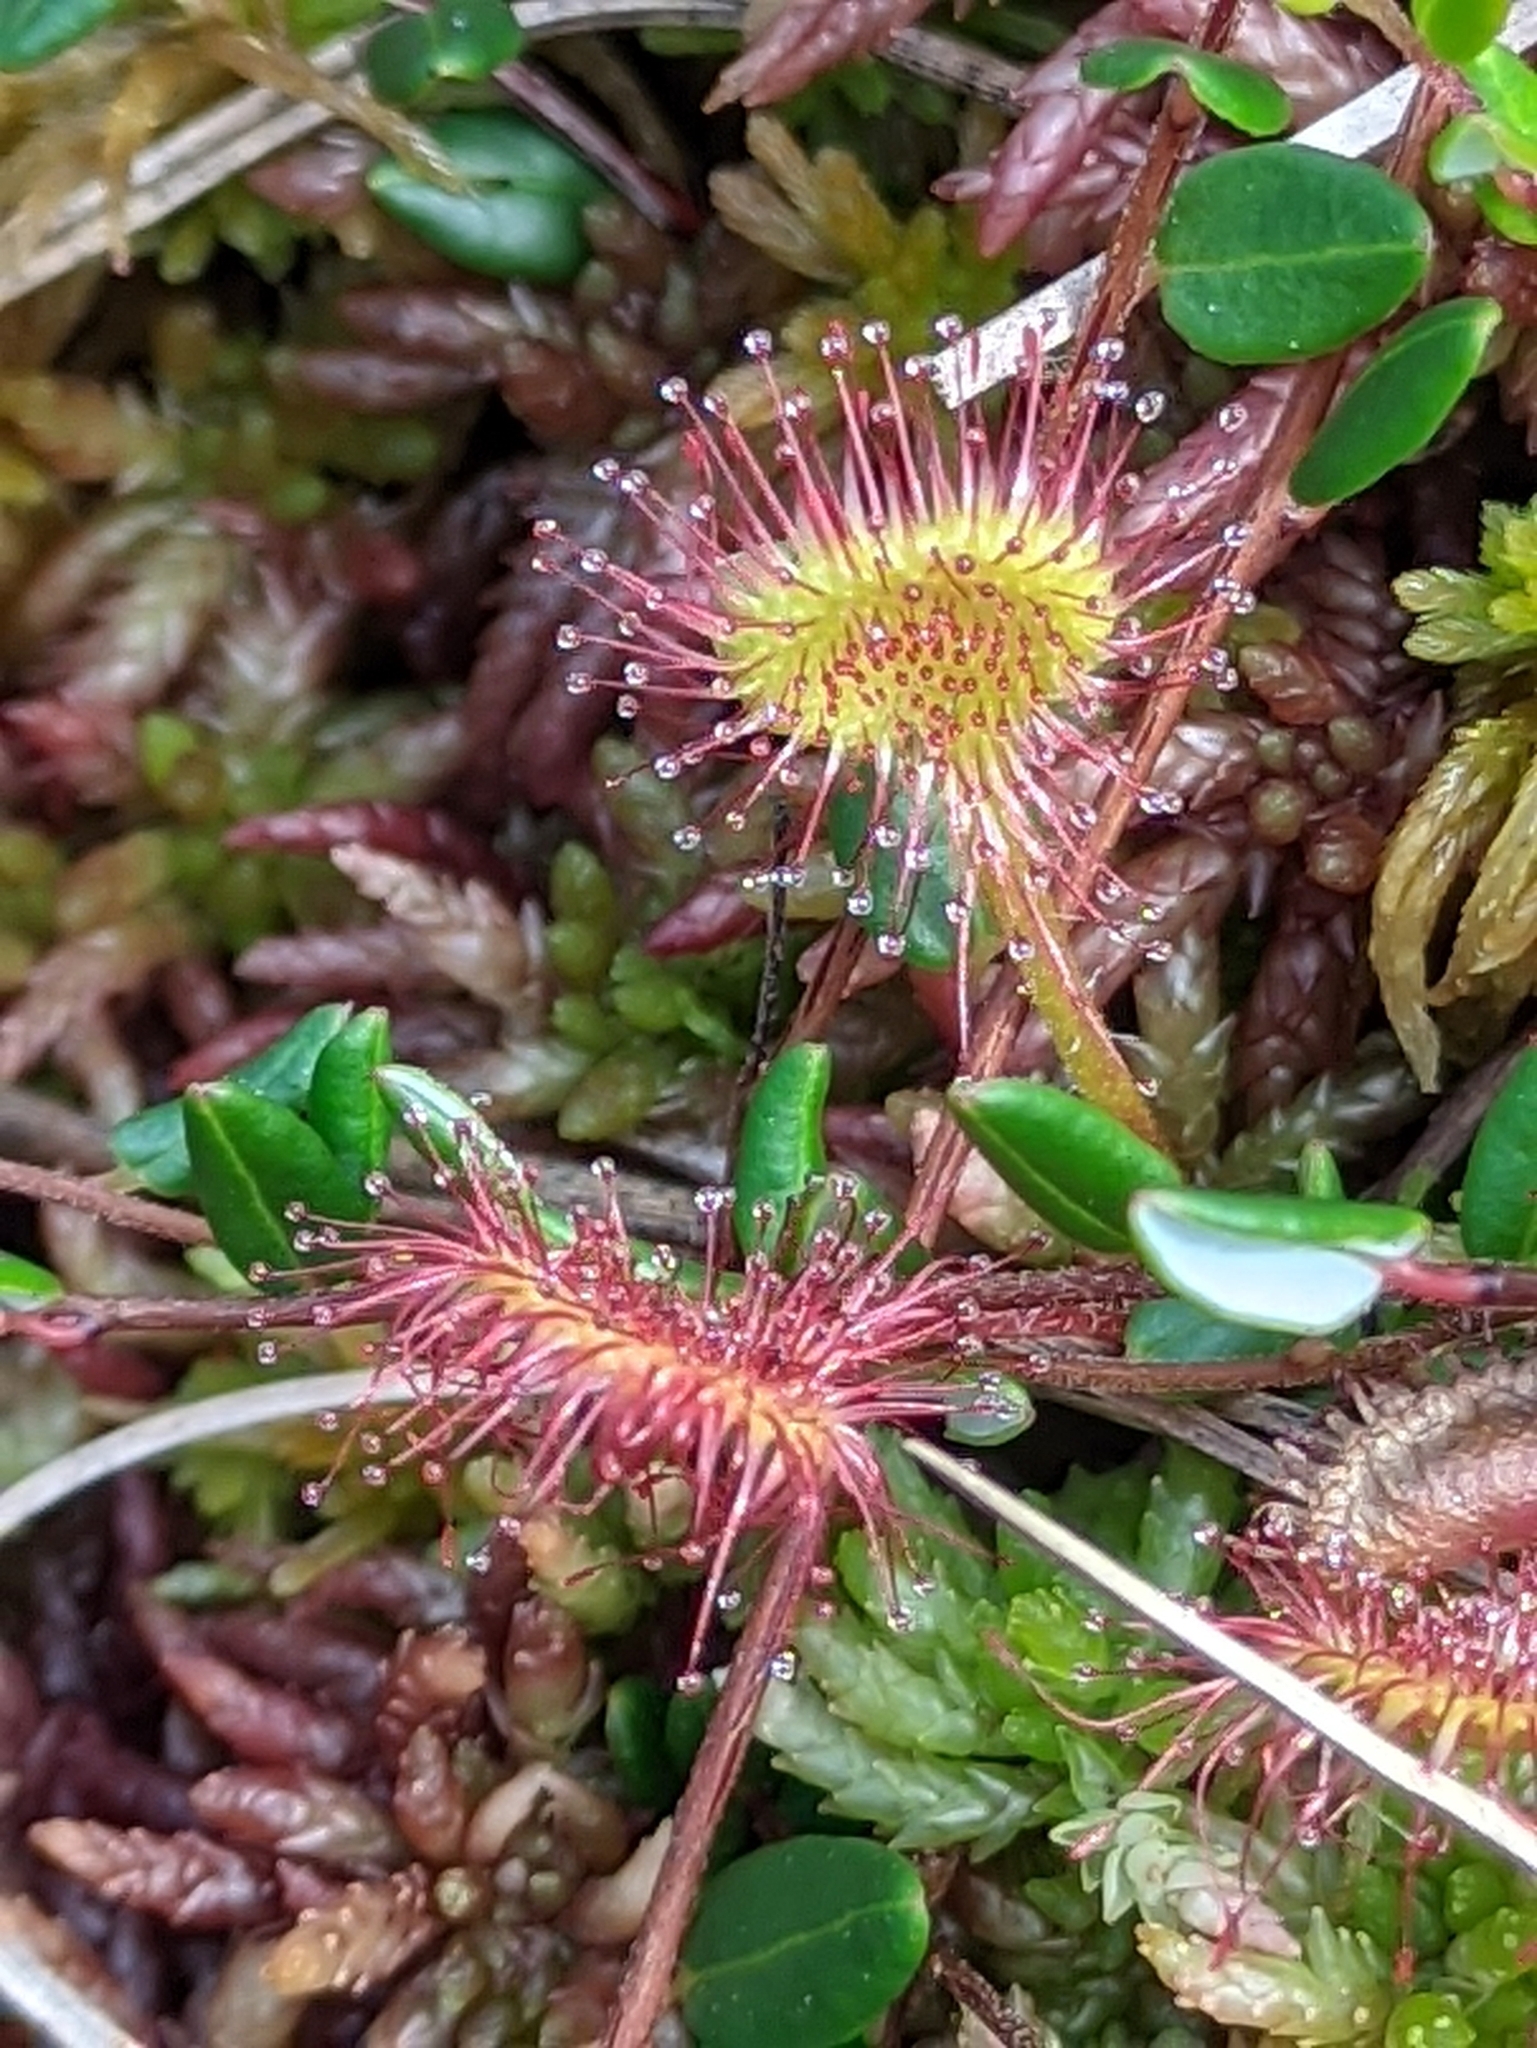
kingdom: Plantae
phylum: Tracheophyta
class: Magnoliopsida
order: Caryophyllales
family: Droseraceae
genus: Drosera
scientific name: Drosera rotundifolia
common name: Round-leaved sundew
